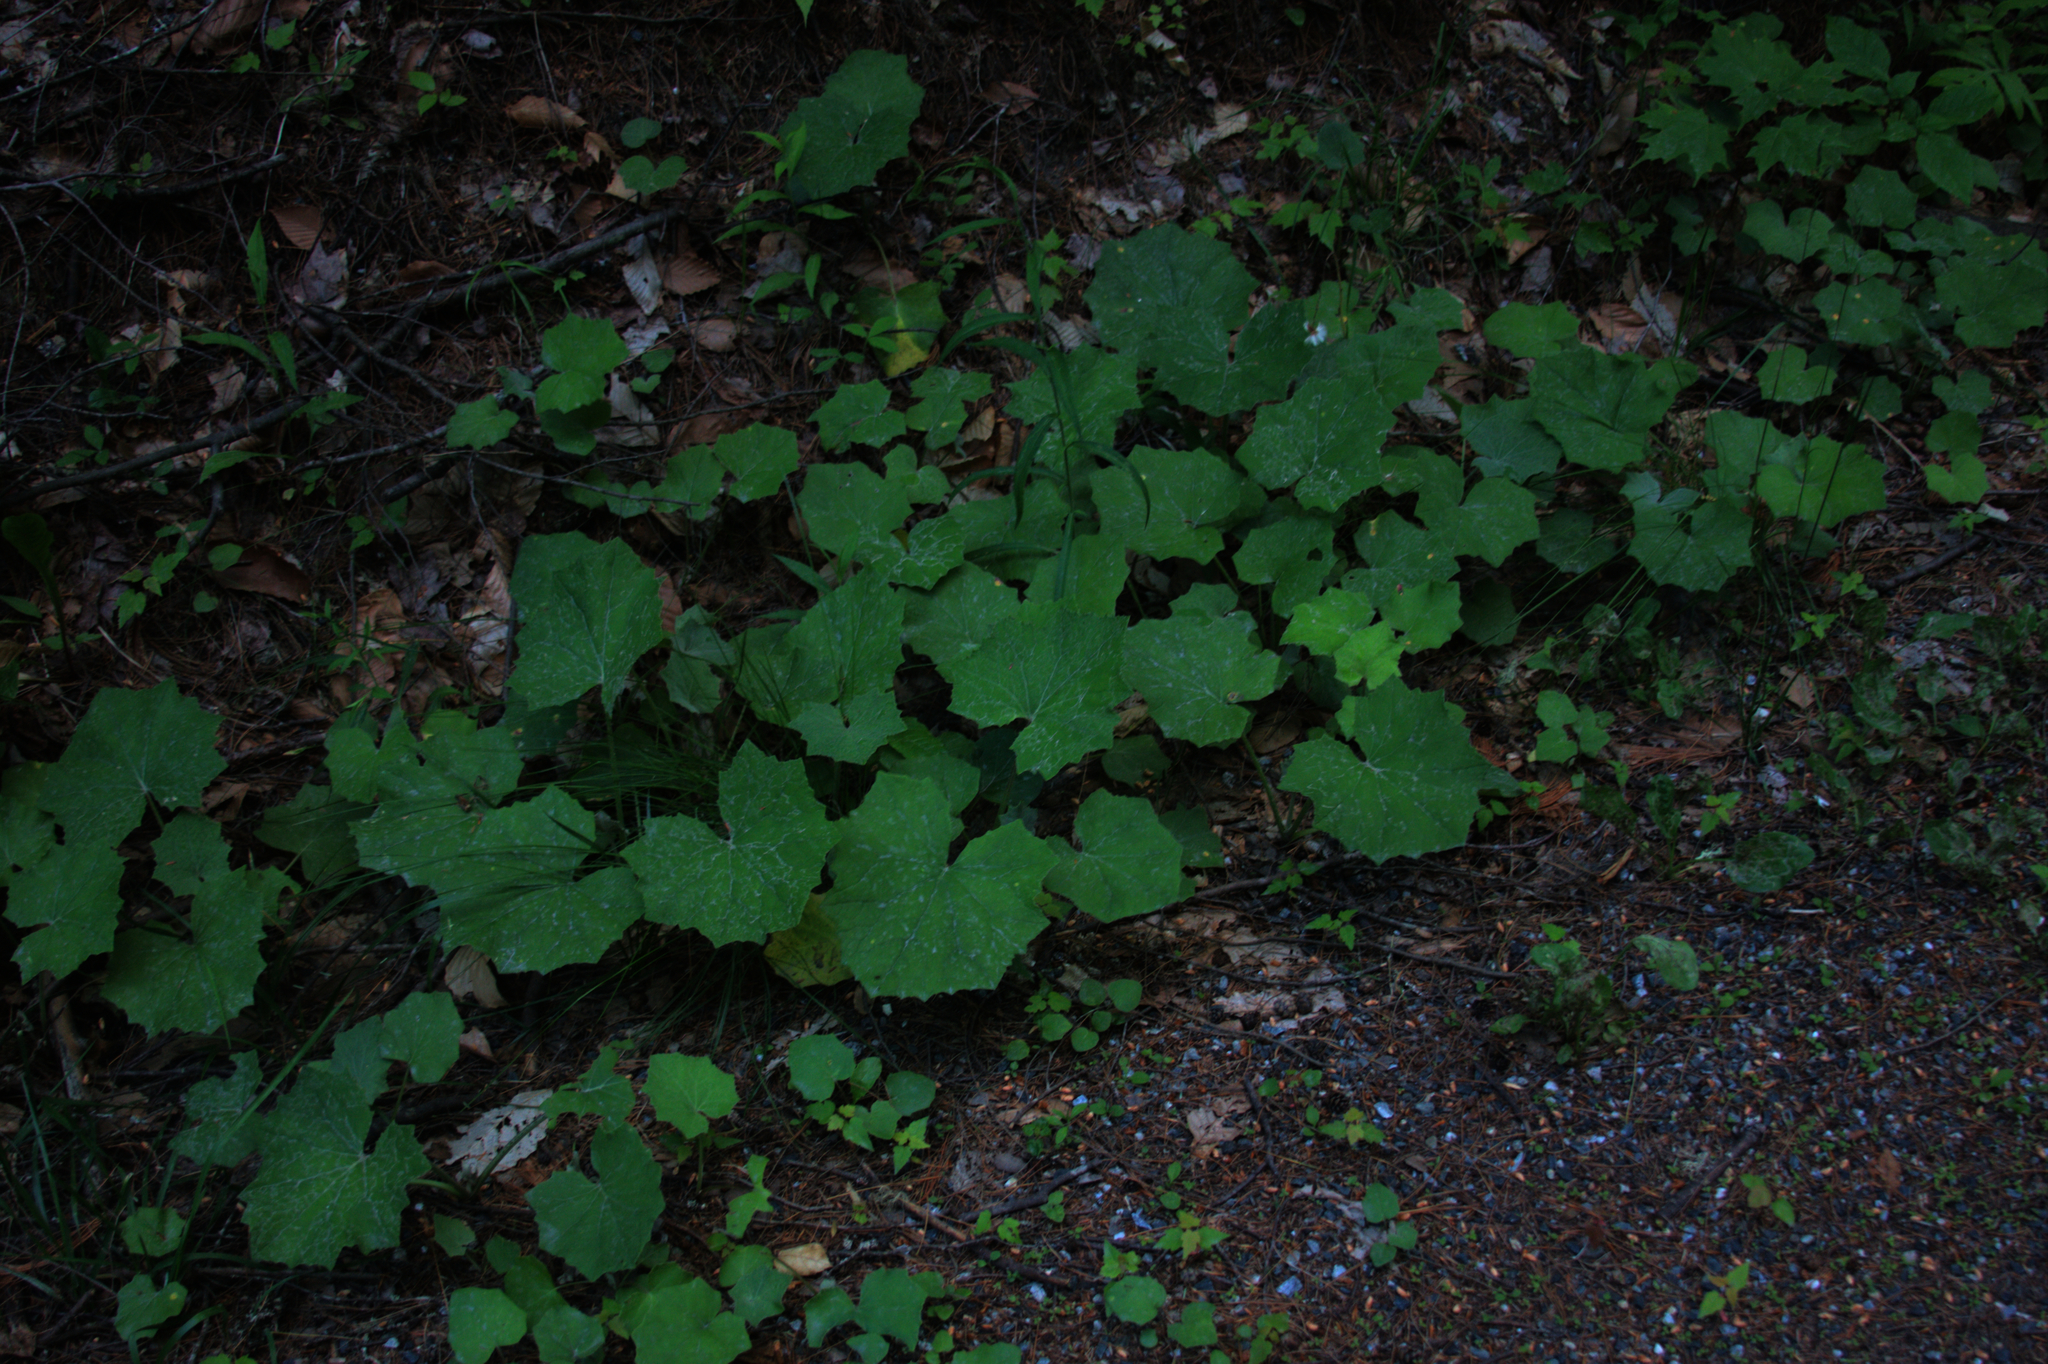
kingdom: Plantae
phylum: Tracheophyta
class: Magnoliopsida
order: Asterales
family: Asteraceae
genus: Tussilago
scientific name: Tussilago farfara
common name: Coltsfoot
